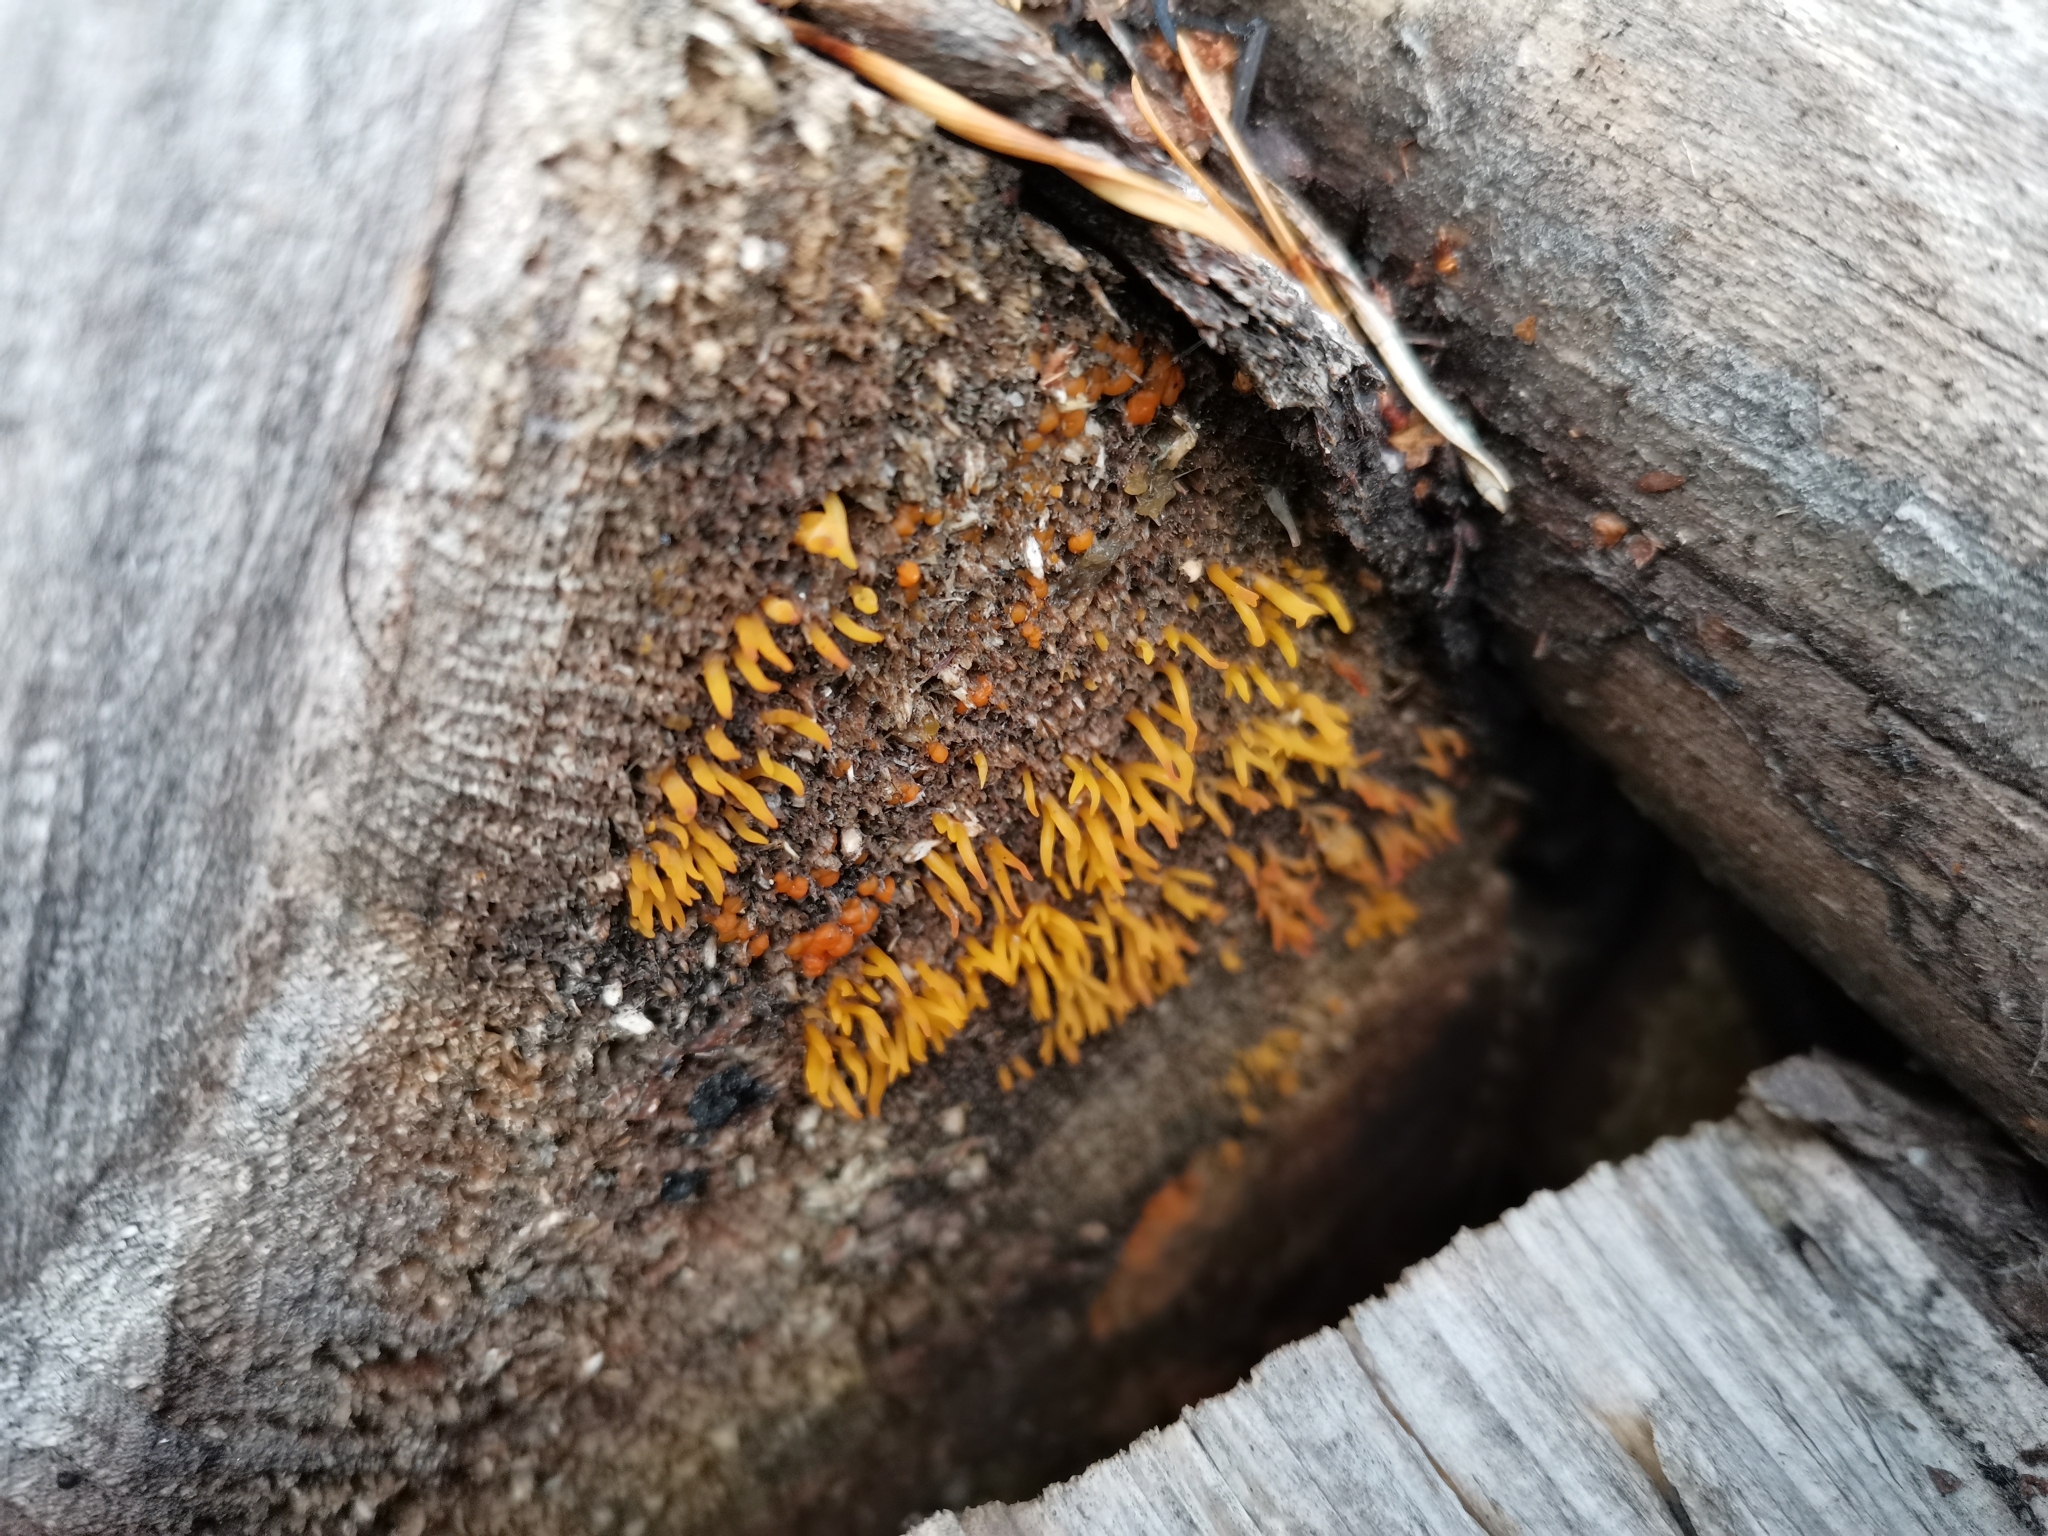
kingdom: Fungi
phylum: Basidiomycota
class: Dacrymycetes
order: Dacrymycetales
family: Dacrymycetaceae
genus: Calocera
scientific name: Calocera cornea
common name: Small stagshorn
